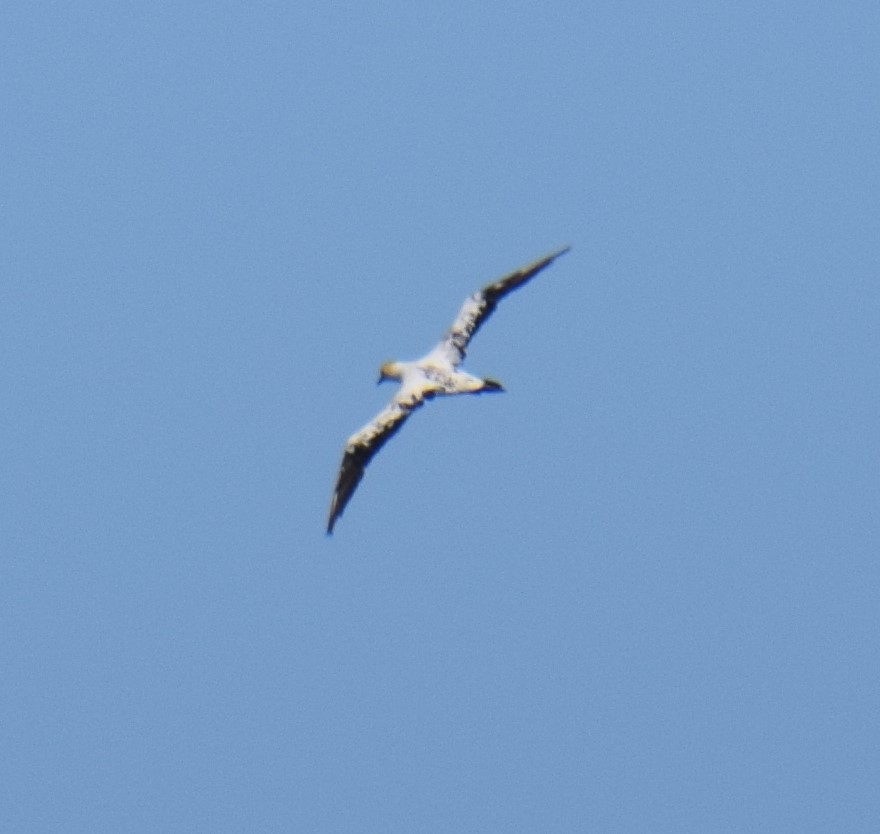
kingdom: Animalia
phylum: Chordata
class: Aves
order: Suliformes
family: Sulidae
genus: Morus
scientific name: Morus serrator
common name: Australasian gannet
